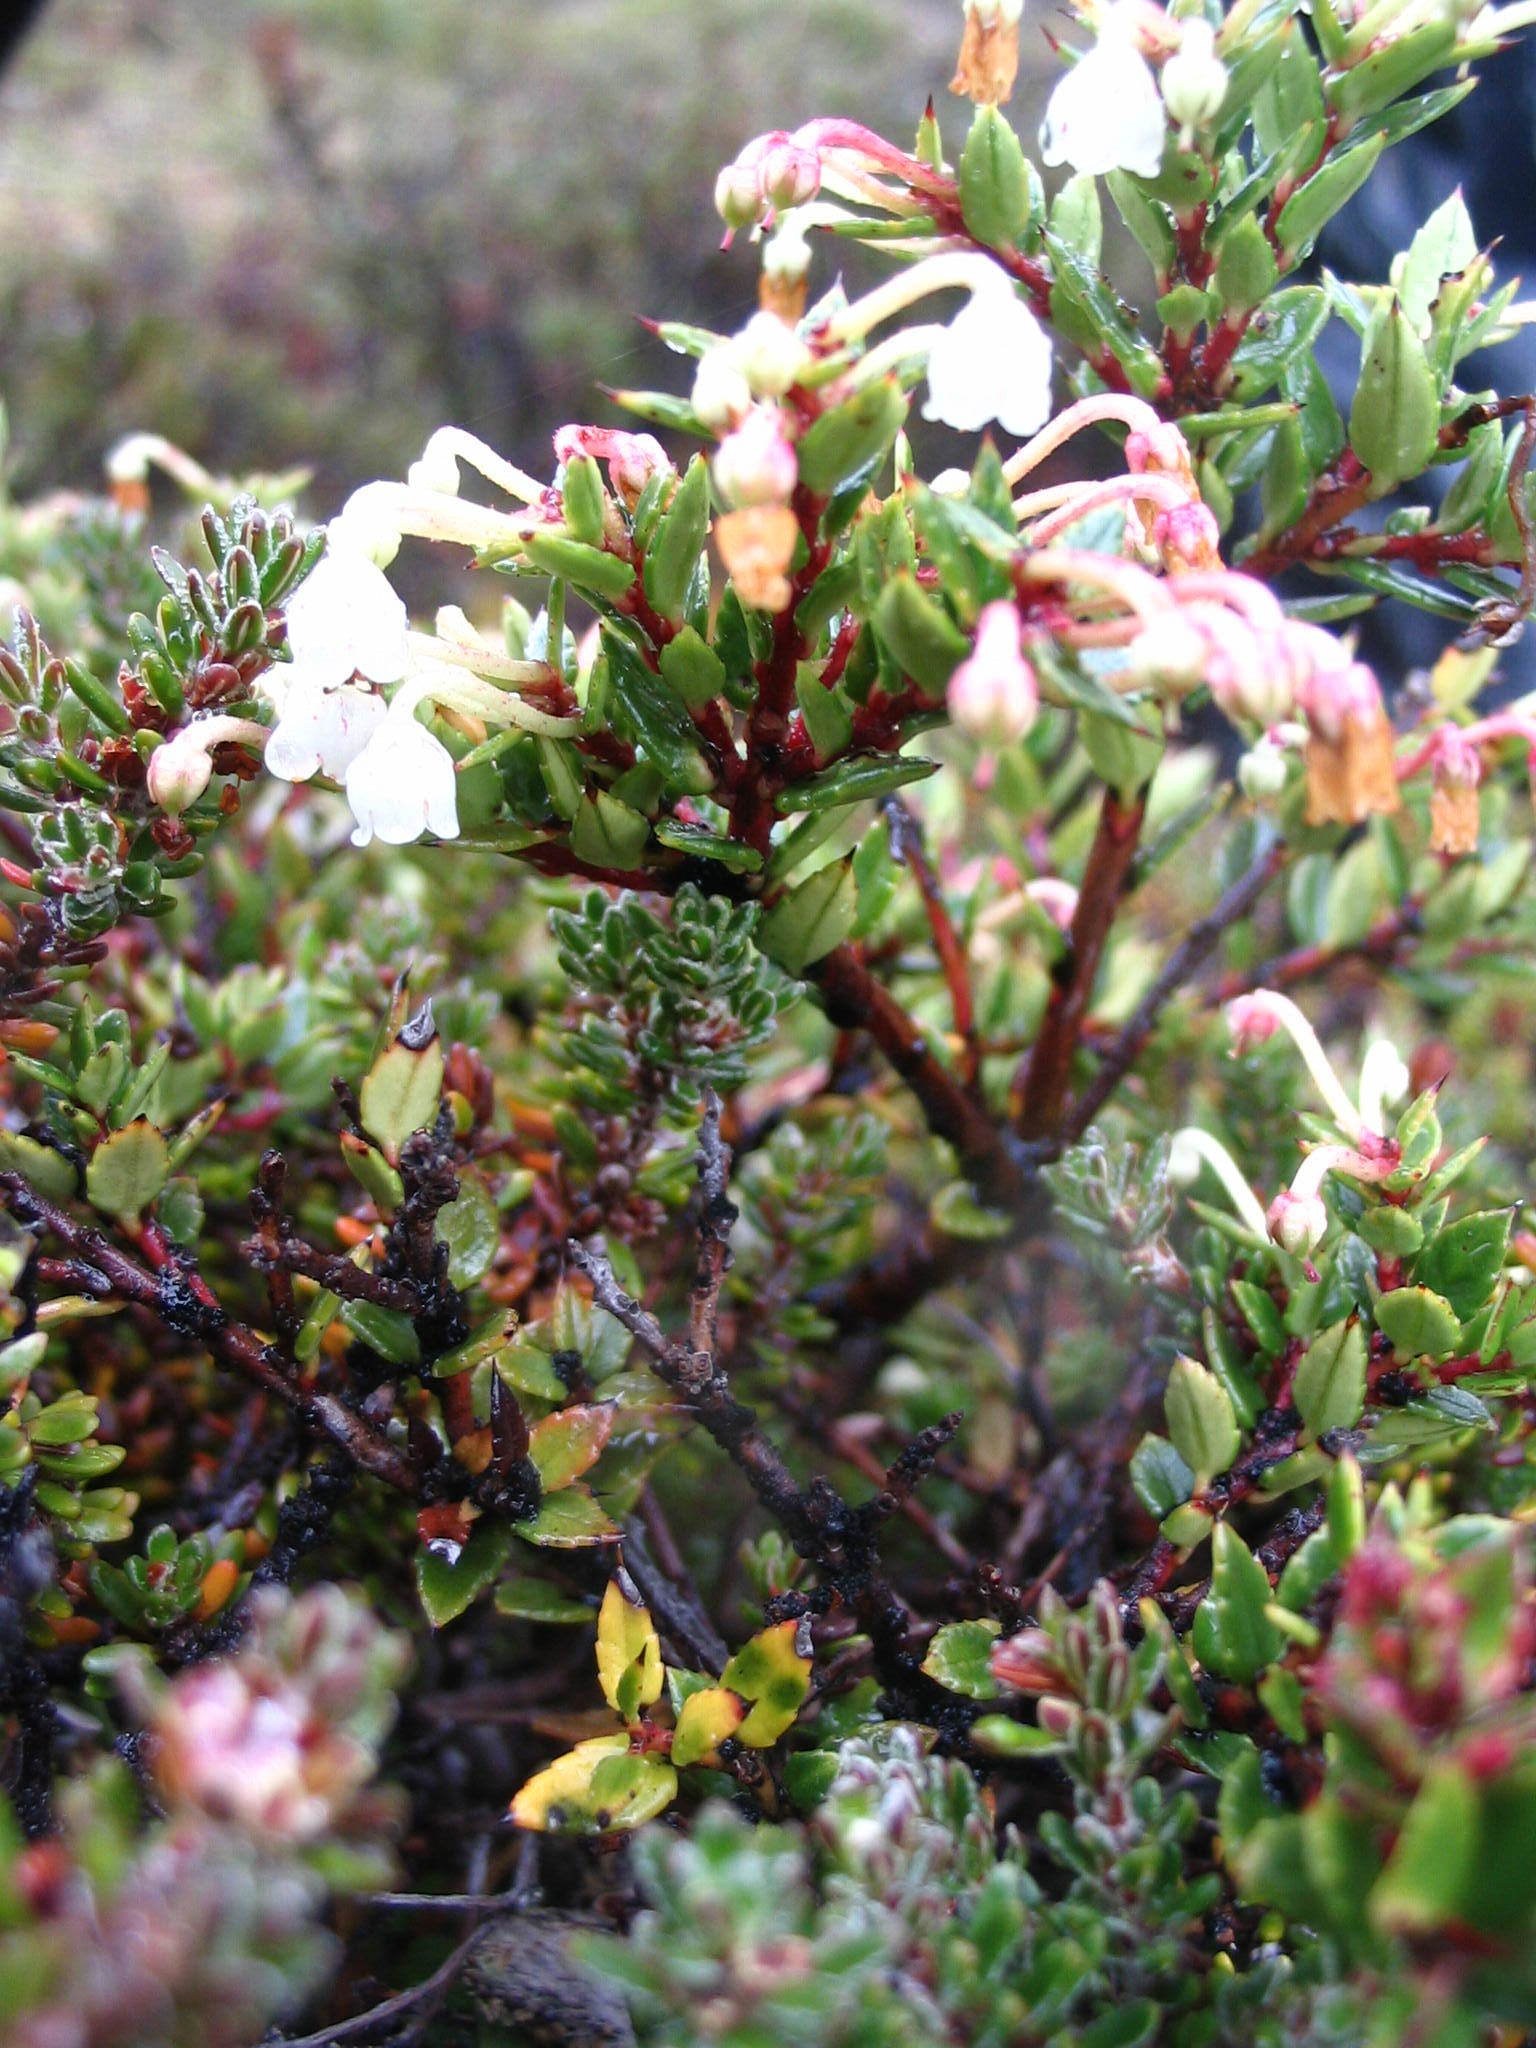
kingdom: Plantae
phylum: Tracheophyta
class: Magnoliopsida
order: Ericales
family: Ericaceae
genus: Gaultheria
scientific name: Gaultheria mucronata
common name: Prickly heath
